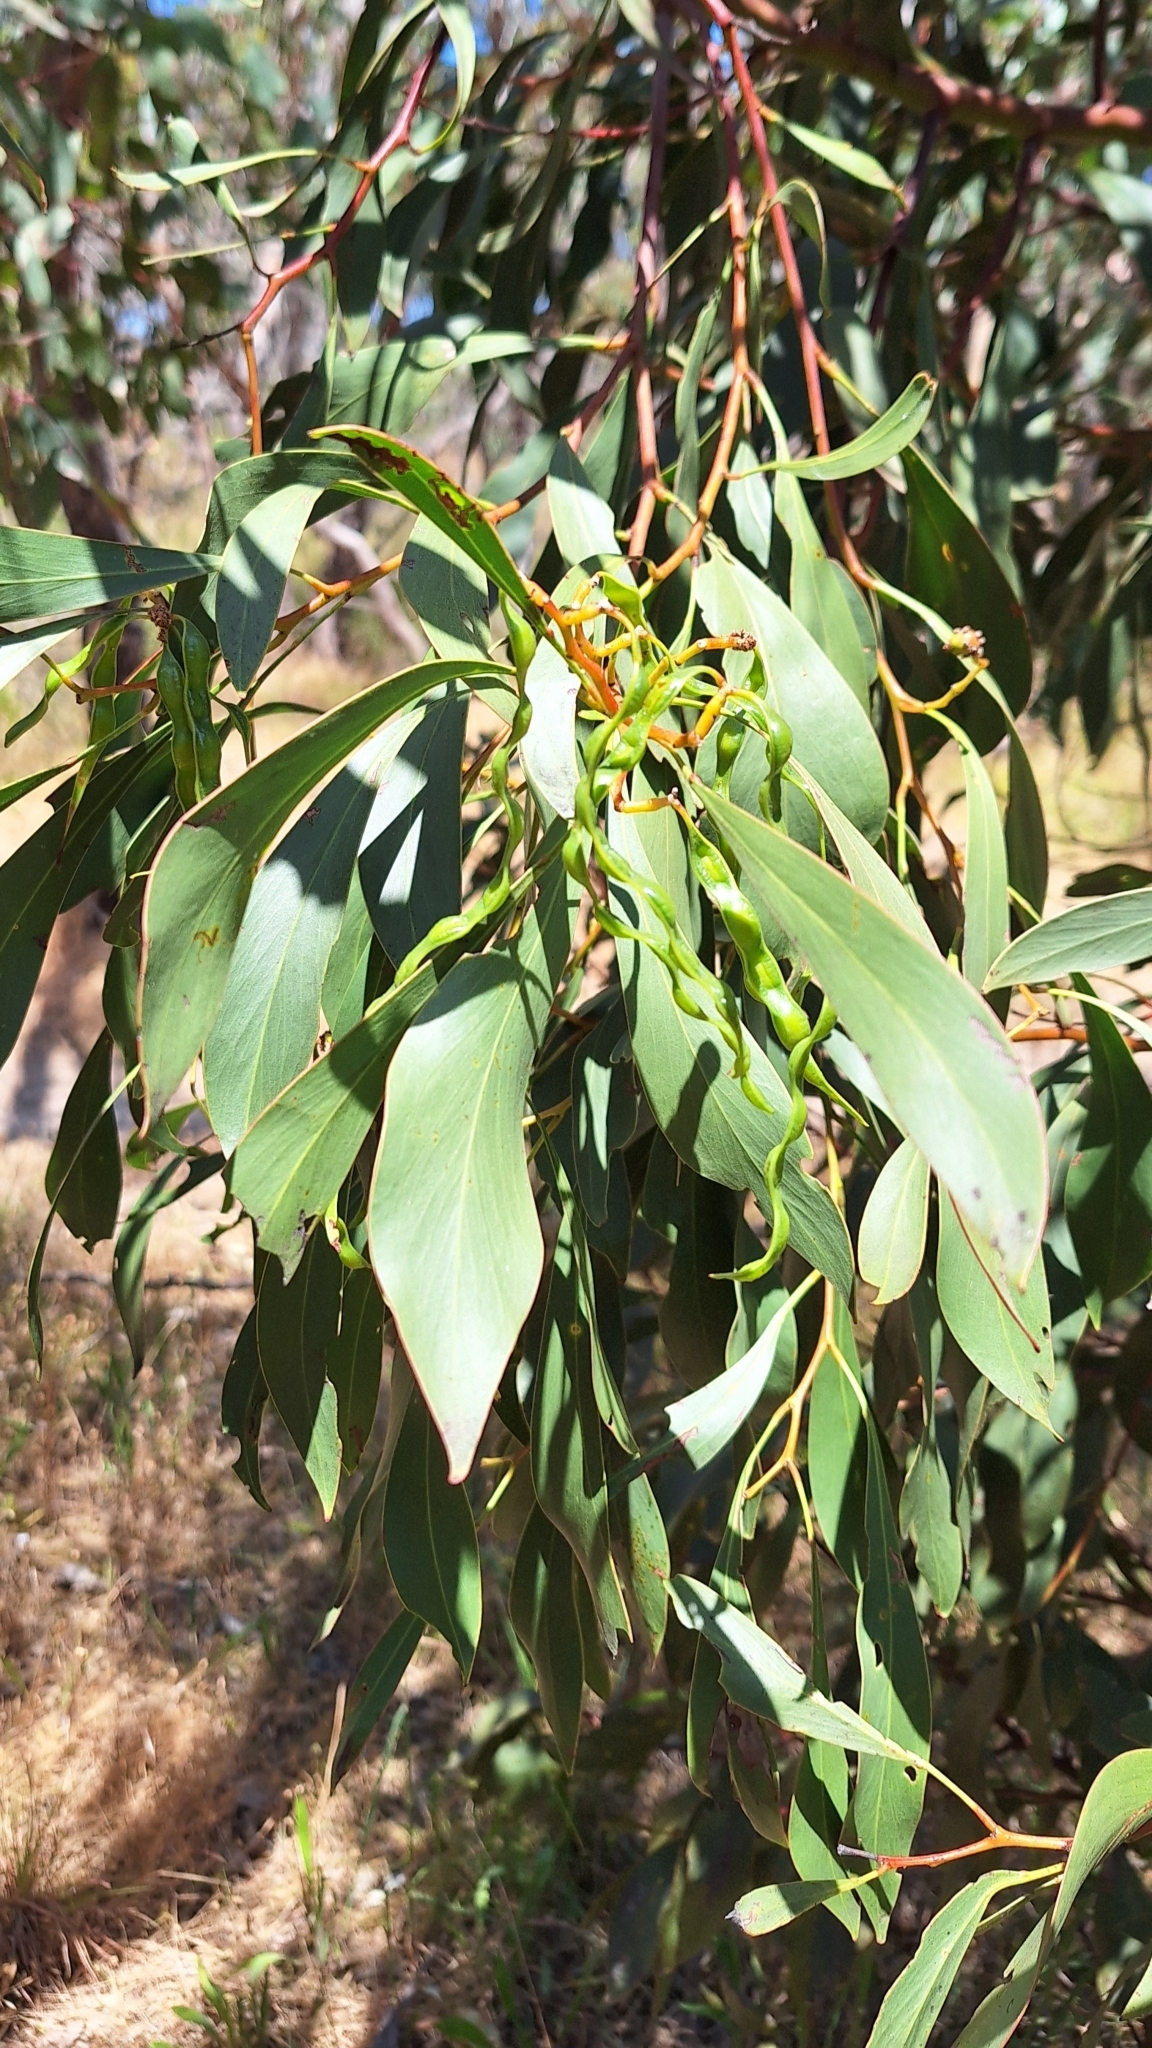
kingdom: Plantae
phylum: Tracheophyta
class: Magnoliopsida
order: Fabales
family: Fabaceae
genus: Acacia
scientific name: Acacia pycnantha
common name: Golden wattle
